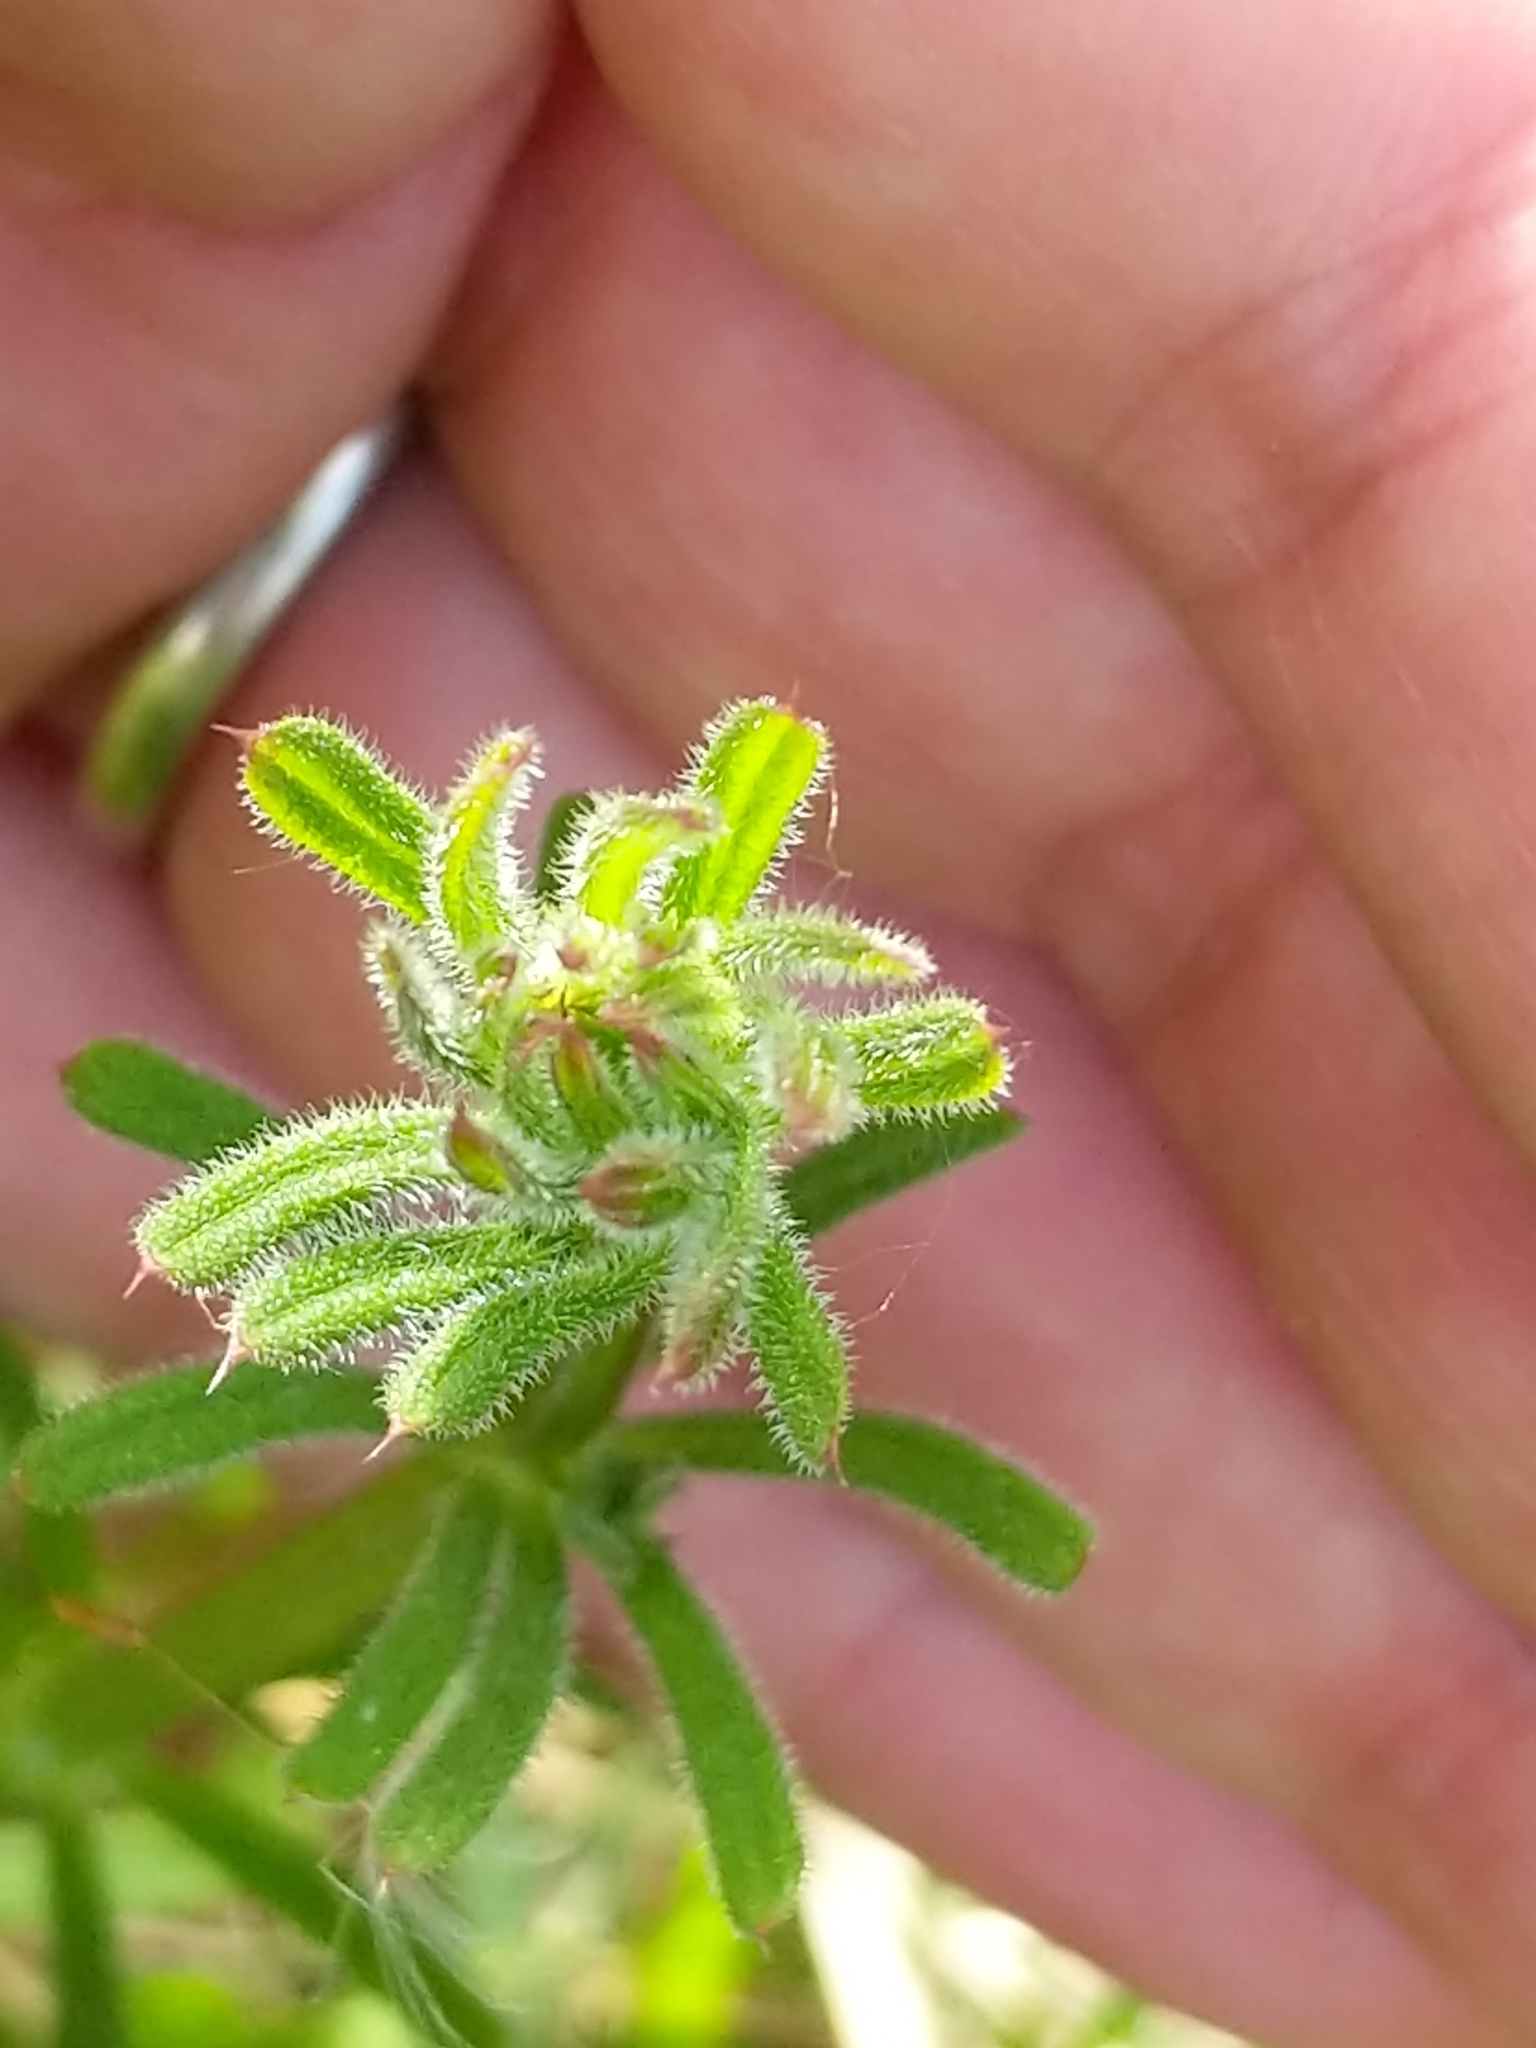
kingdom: Plantae
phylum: Tracheophyta
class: Magnoliopsida
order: Gentianales
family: Rubiaceae
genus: Galium
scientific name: Galium aparine
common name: Cleavers
